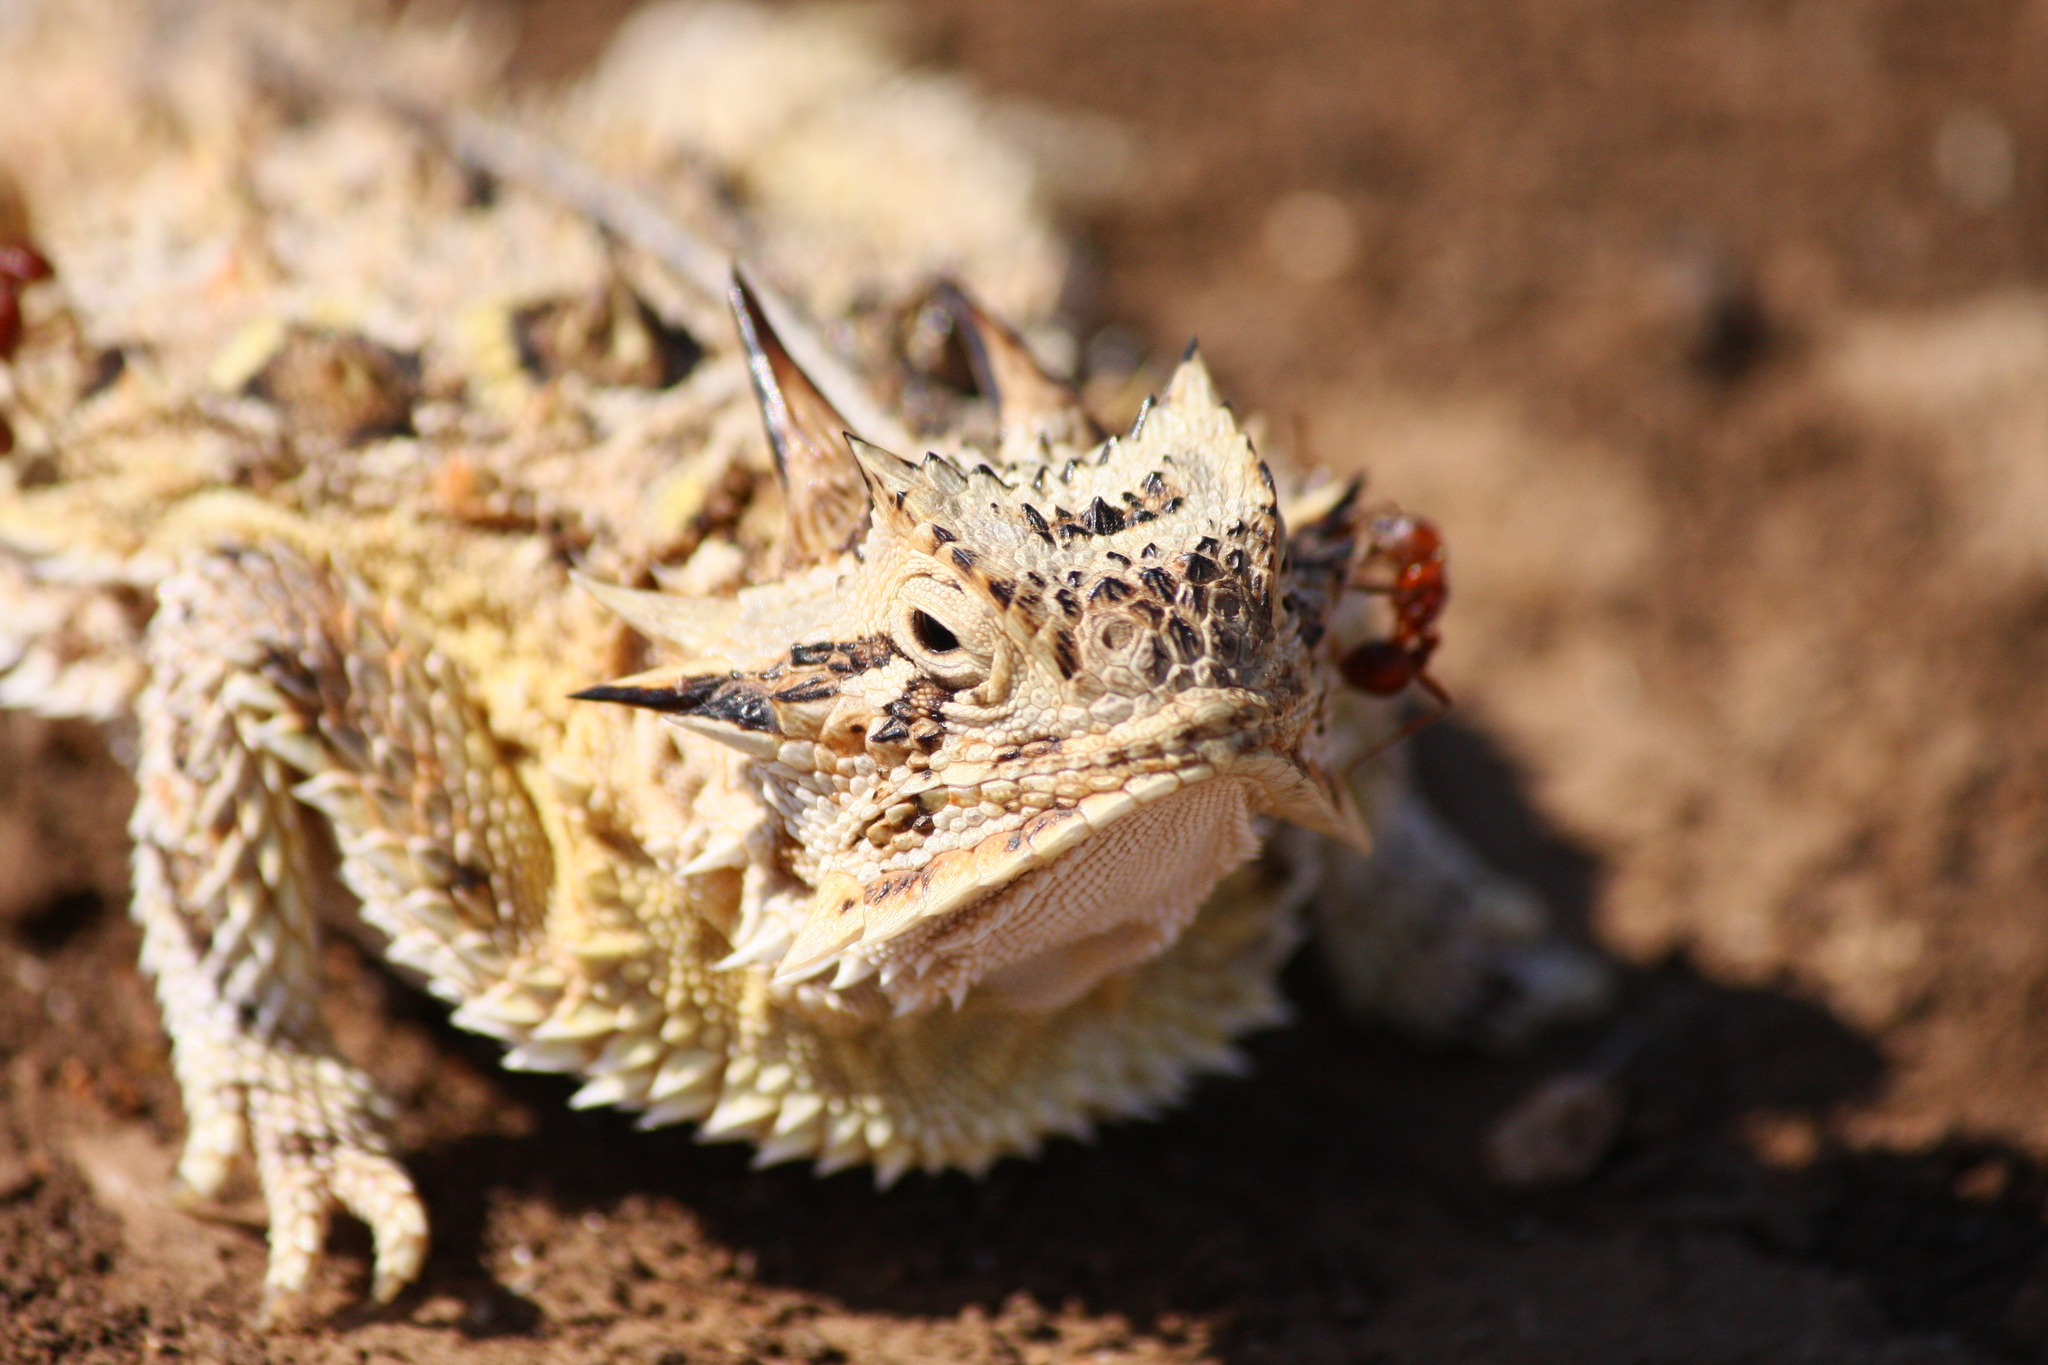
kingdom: Animalia
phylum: Chordata
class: Squamata
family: Phrynosomatidae
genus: Phrynosoma
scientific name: Phrynosoma cornutum
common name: Texas horned lizard
